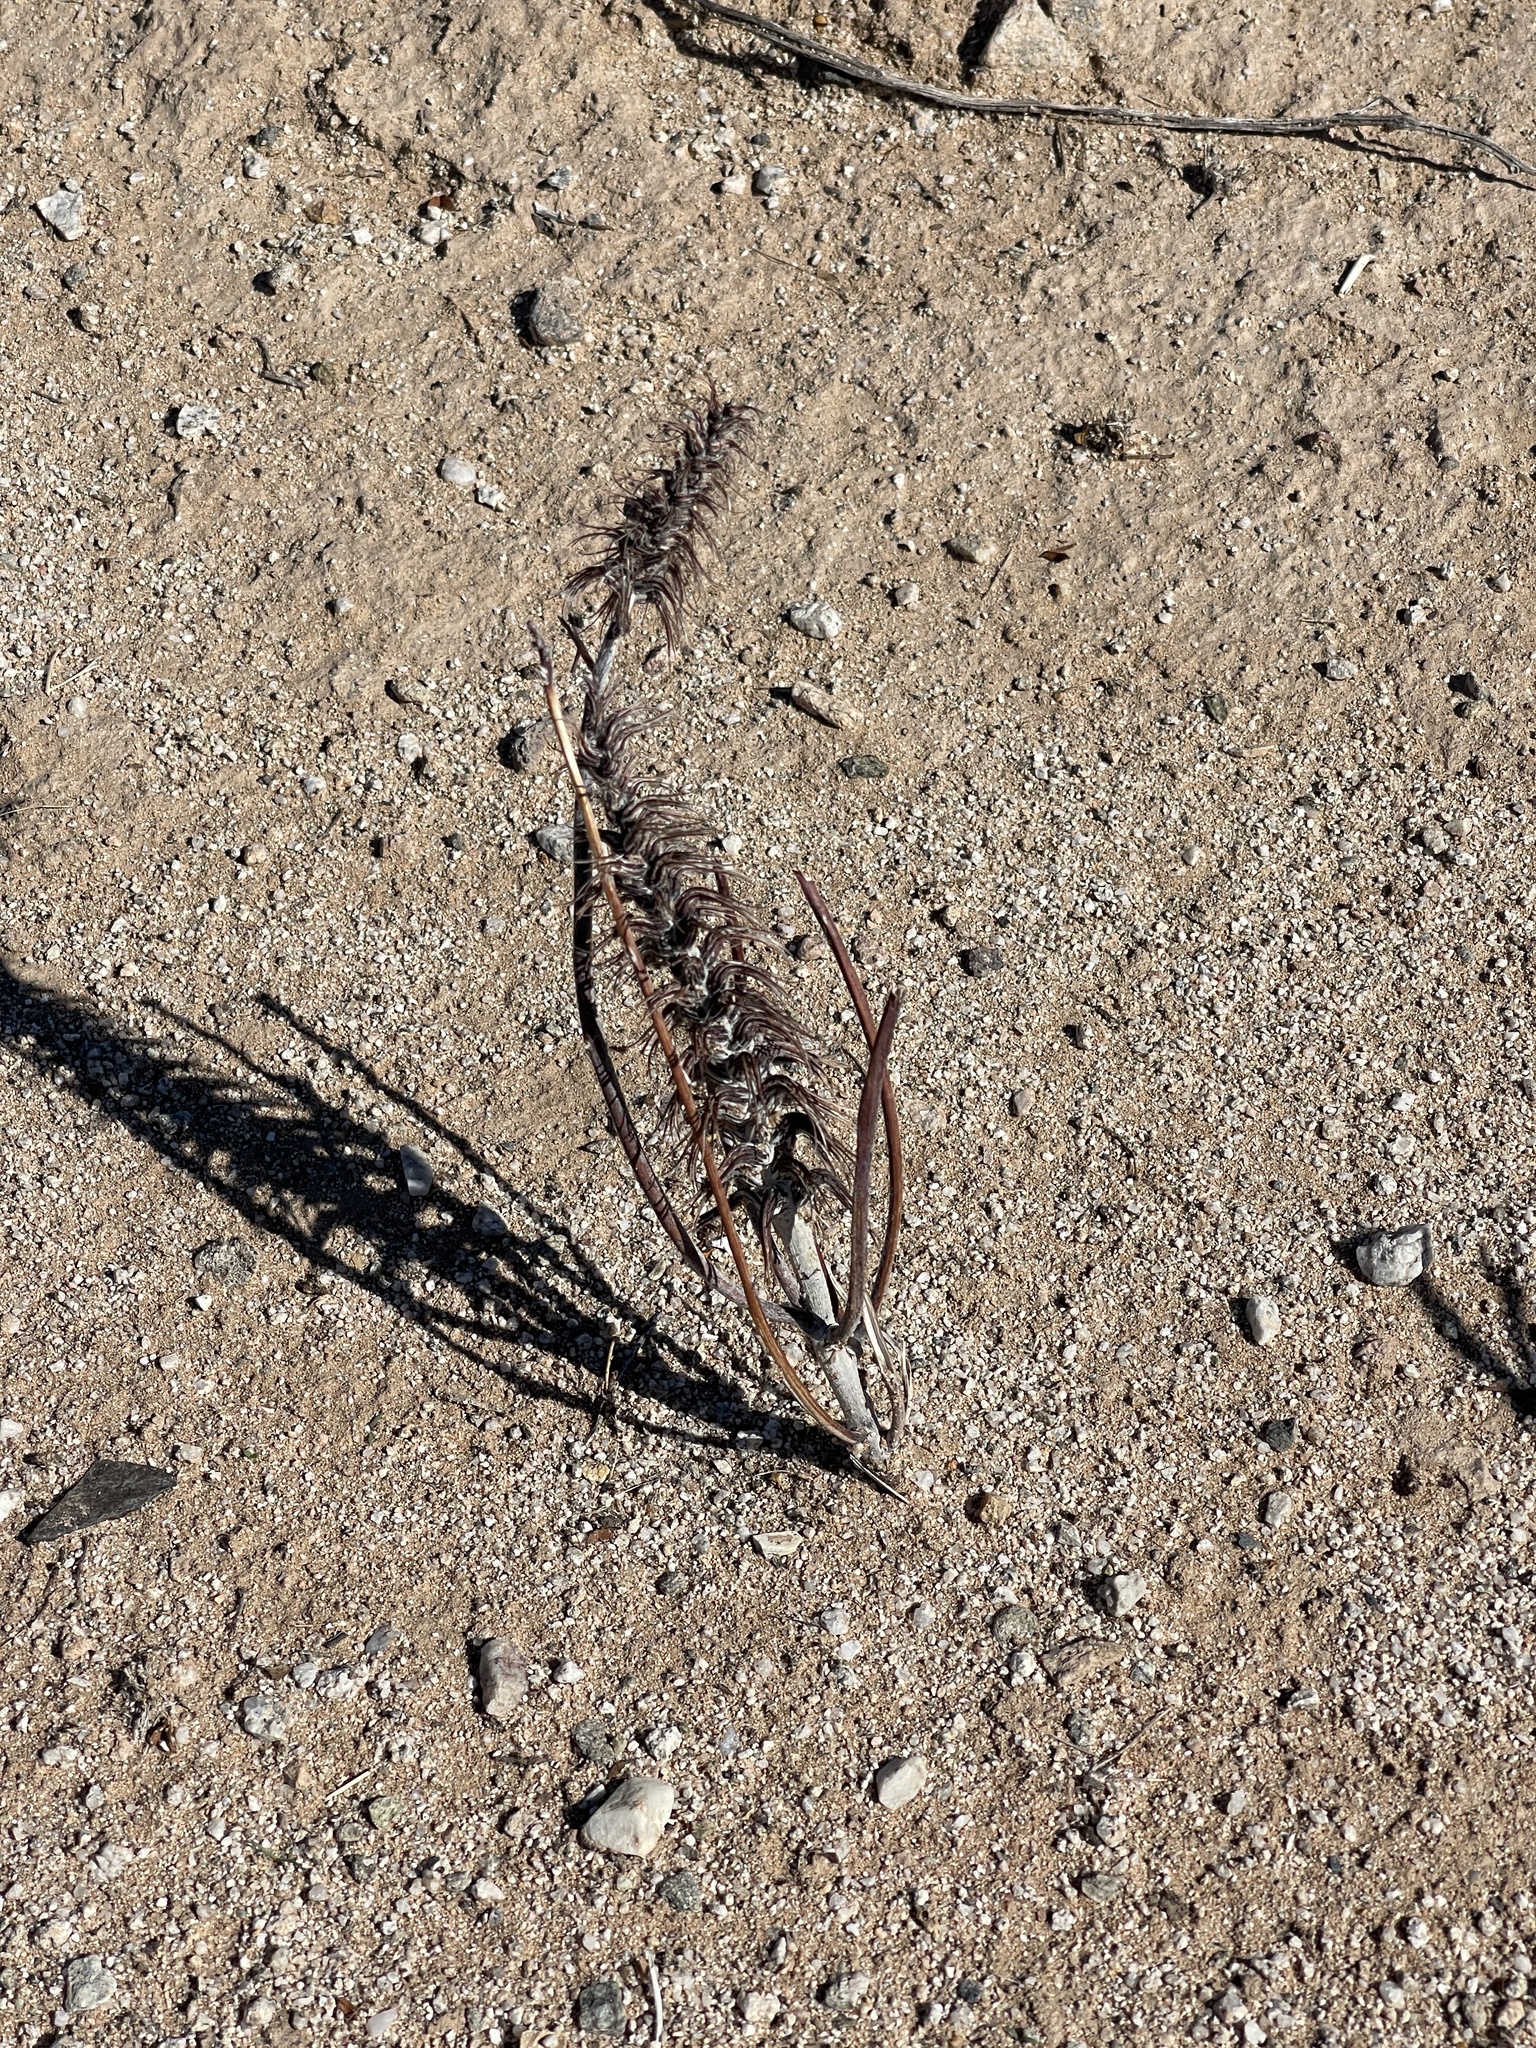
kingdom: Plantae
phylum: Tracheophyta
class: Magnoliopsida
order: Myrtales
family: Onagraceae
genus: Oenothera
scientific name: Oenothera deltoides
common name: Basket evening-primrose
